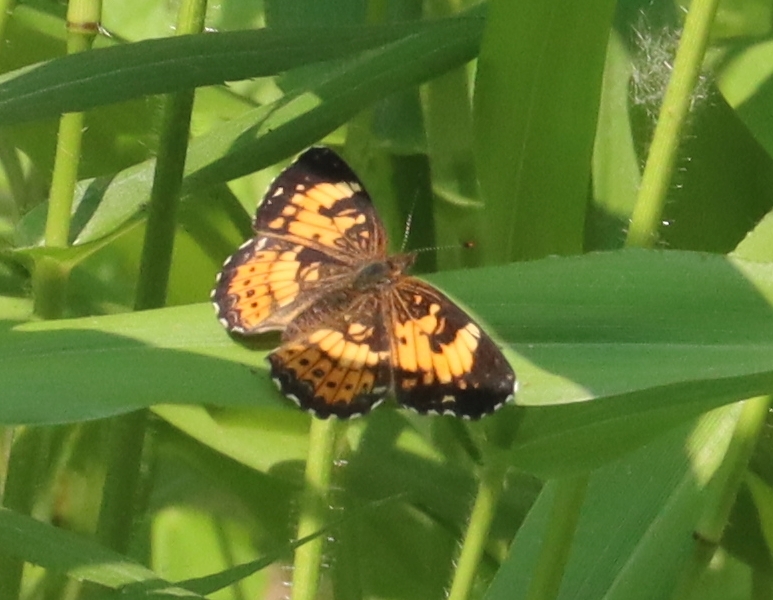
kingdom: Animalia
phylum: Arthropoda
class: Insecta
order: Lepidoptera
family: Nymphalidae
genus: Chlosyne
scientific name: Chlosyne nycteis
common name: Silvery checkerspot
